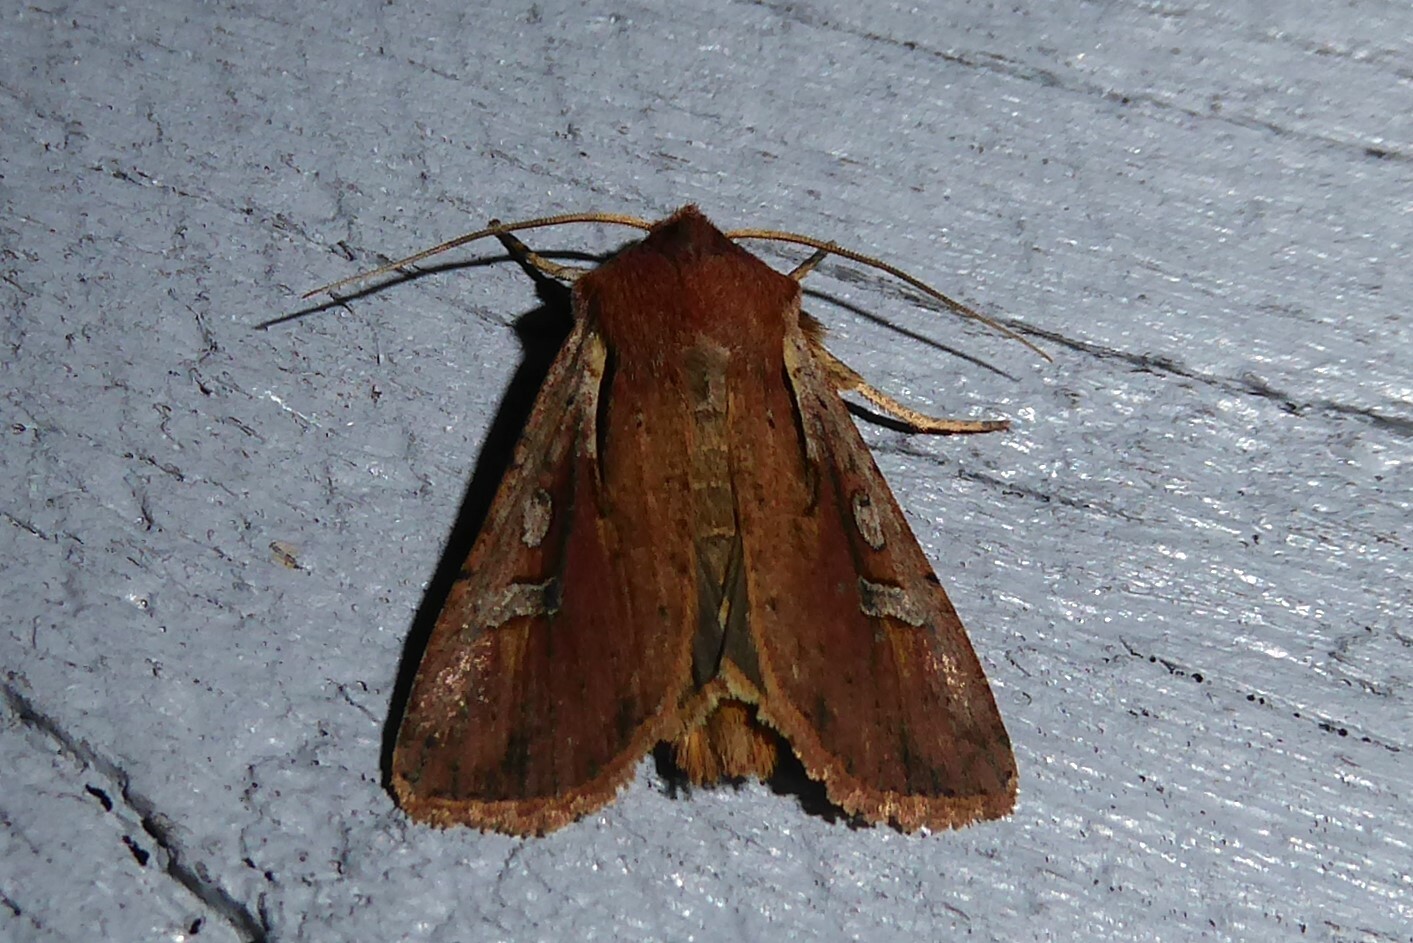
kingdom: Animalia
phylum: Arthropoda
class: Insecta
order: Lepidoptera
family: Noctuidae
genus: Ichneutica
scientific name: Ichneutica atristriga
